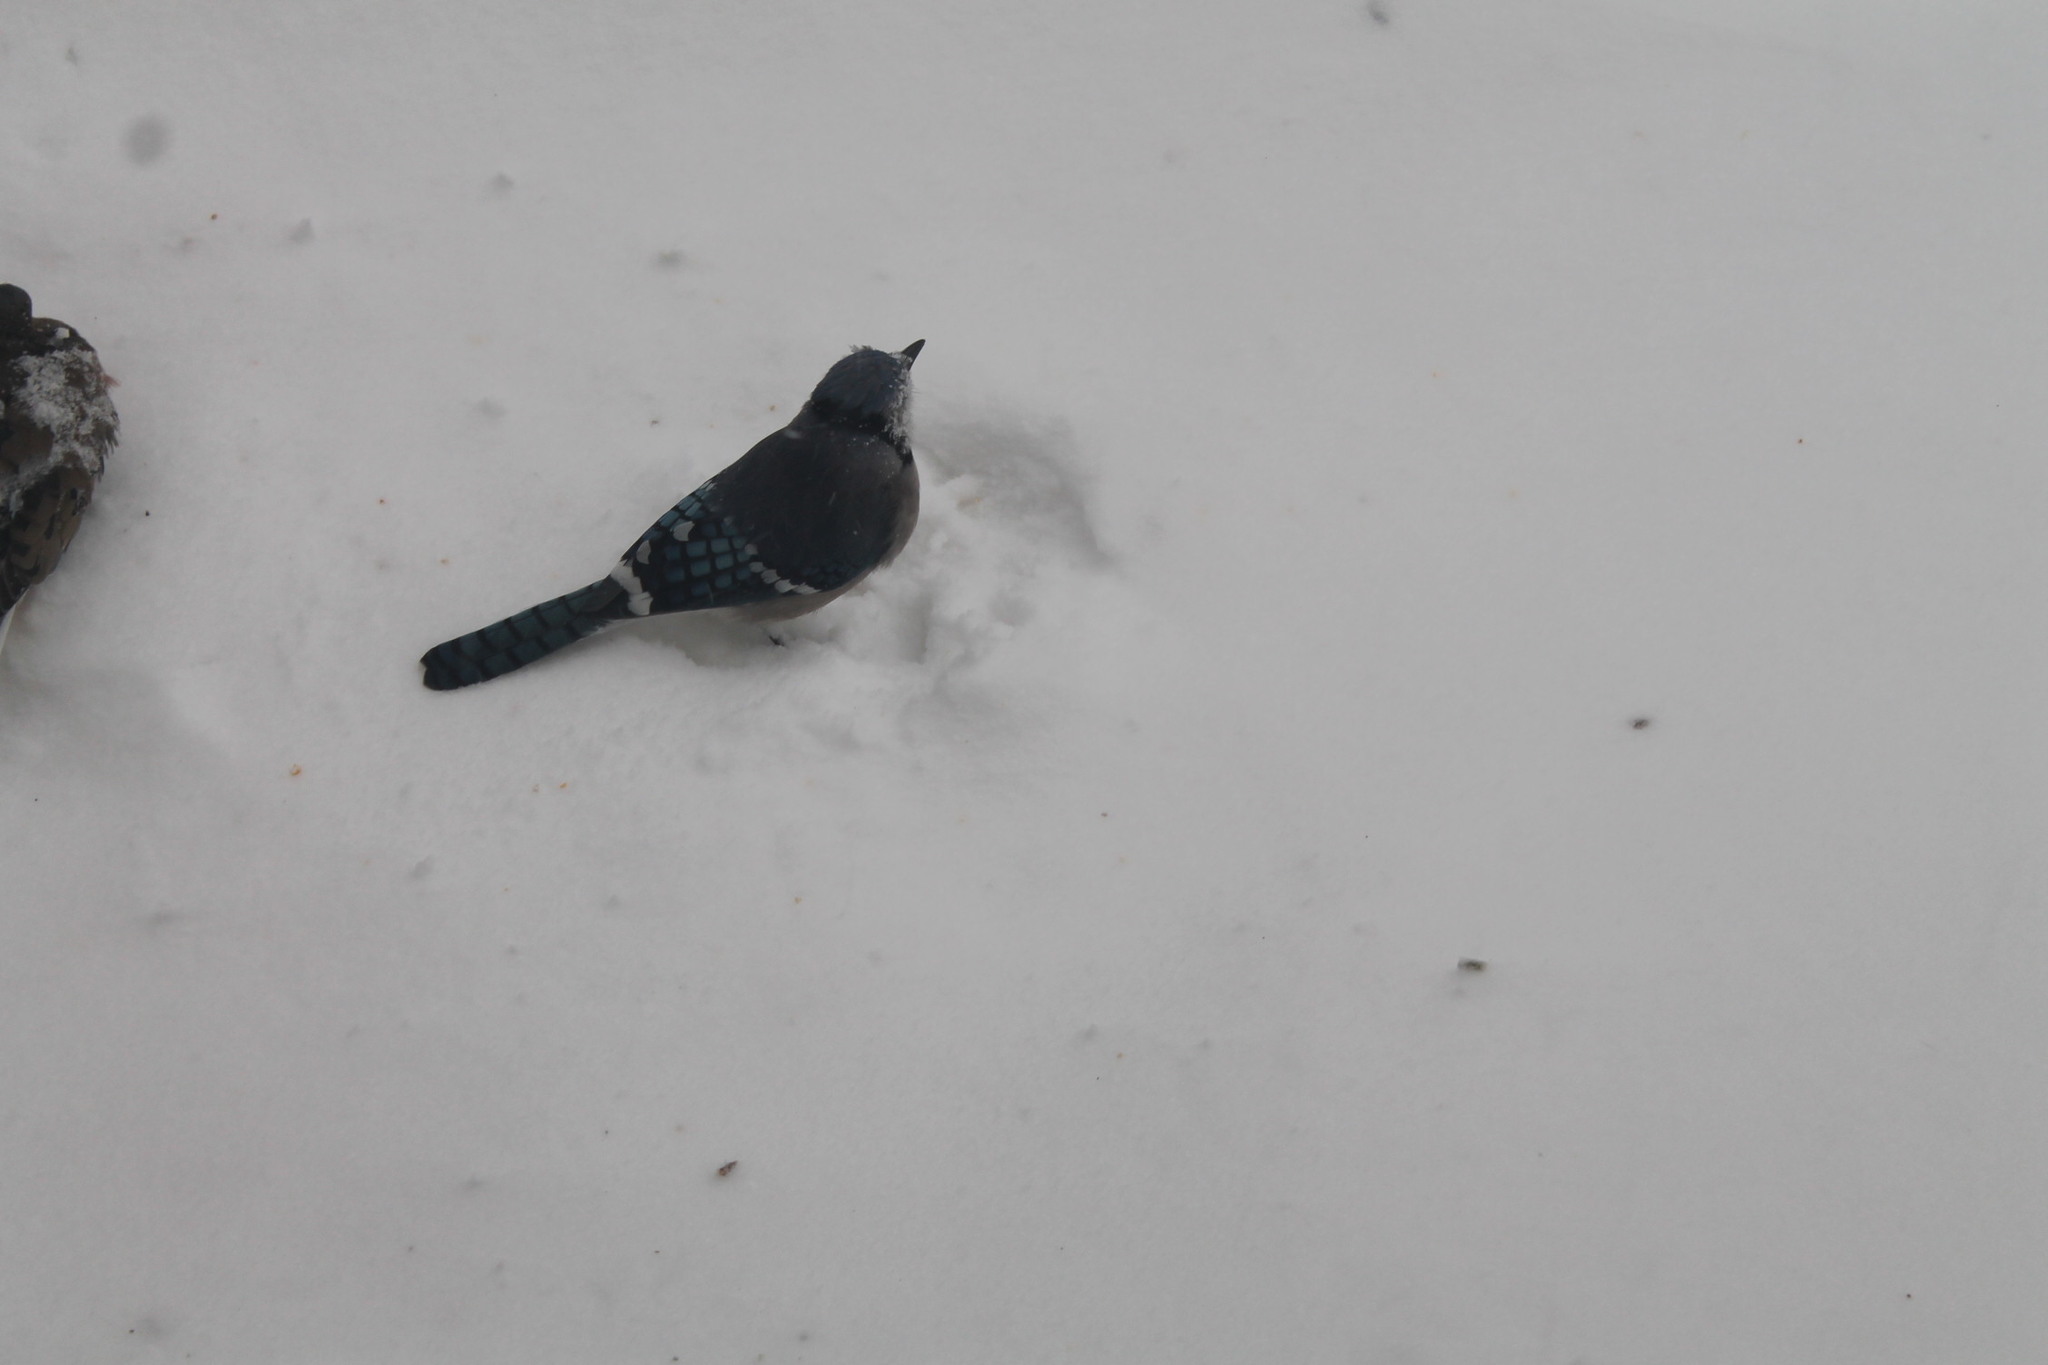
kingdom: Animalia
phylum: Chordata
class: Aves
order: Passeriformes
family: Corvidae
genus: Cyanocitta
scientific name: Cyanocitta cristata
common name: Blue jay
